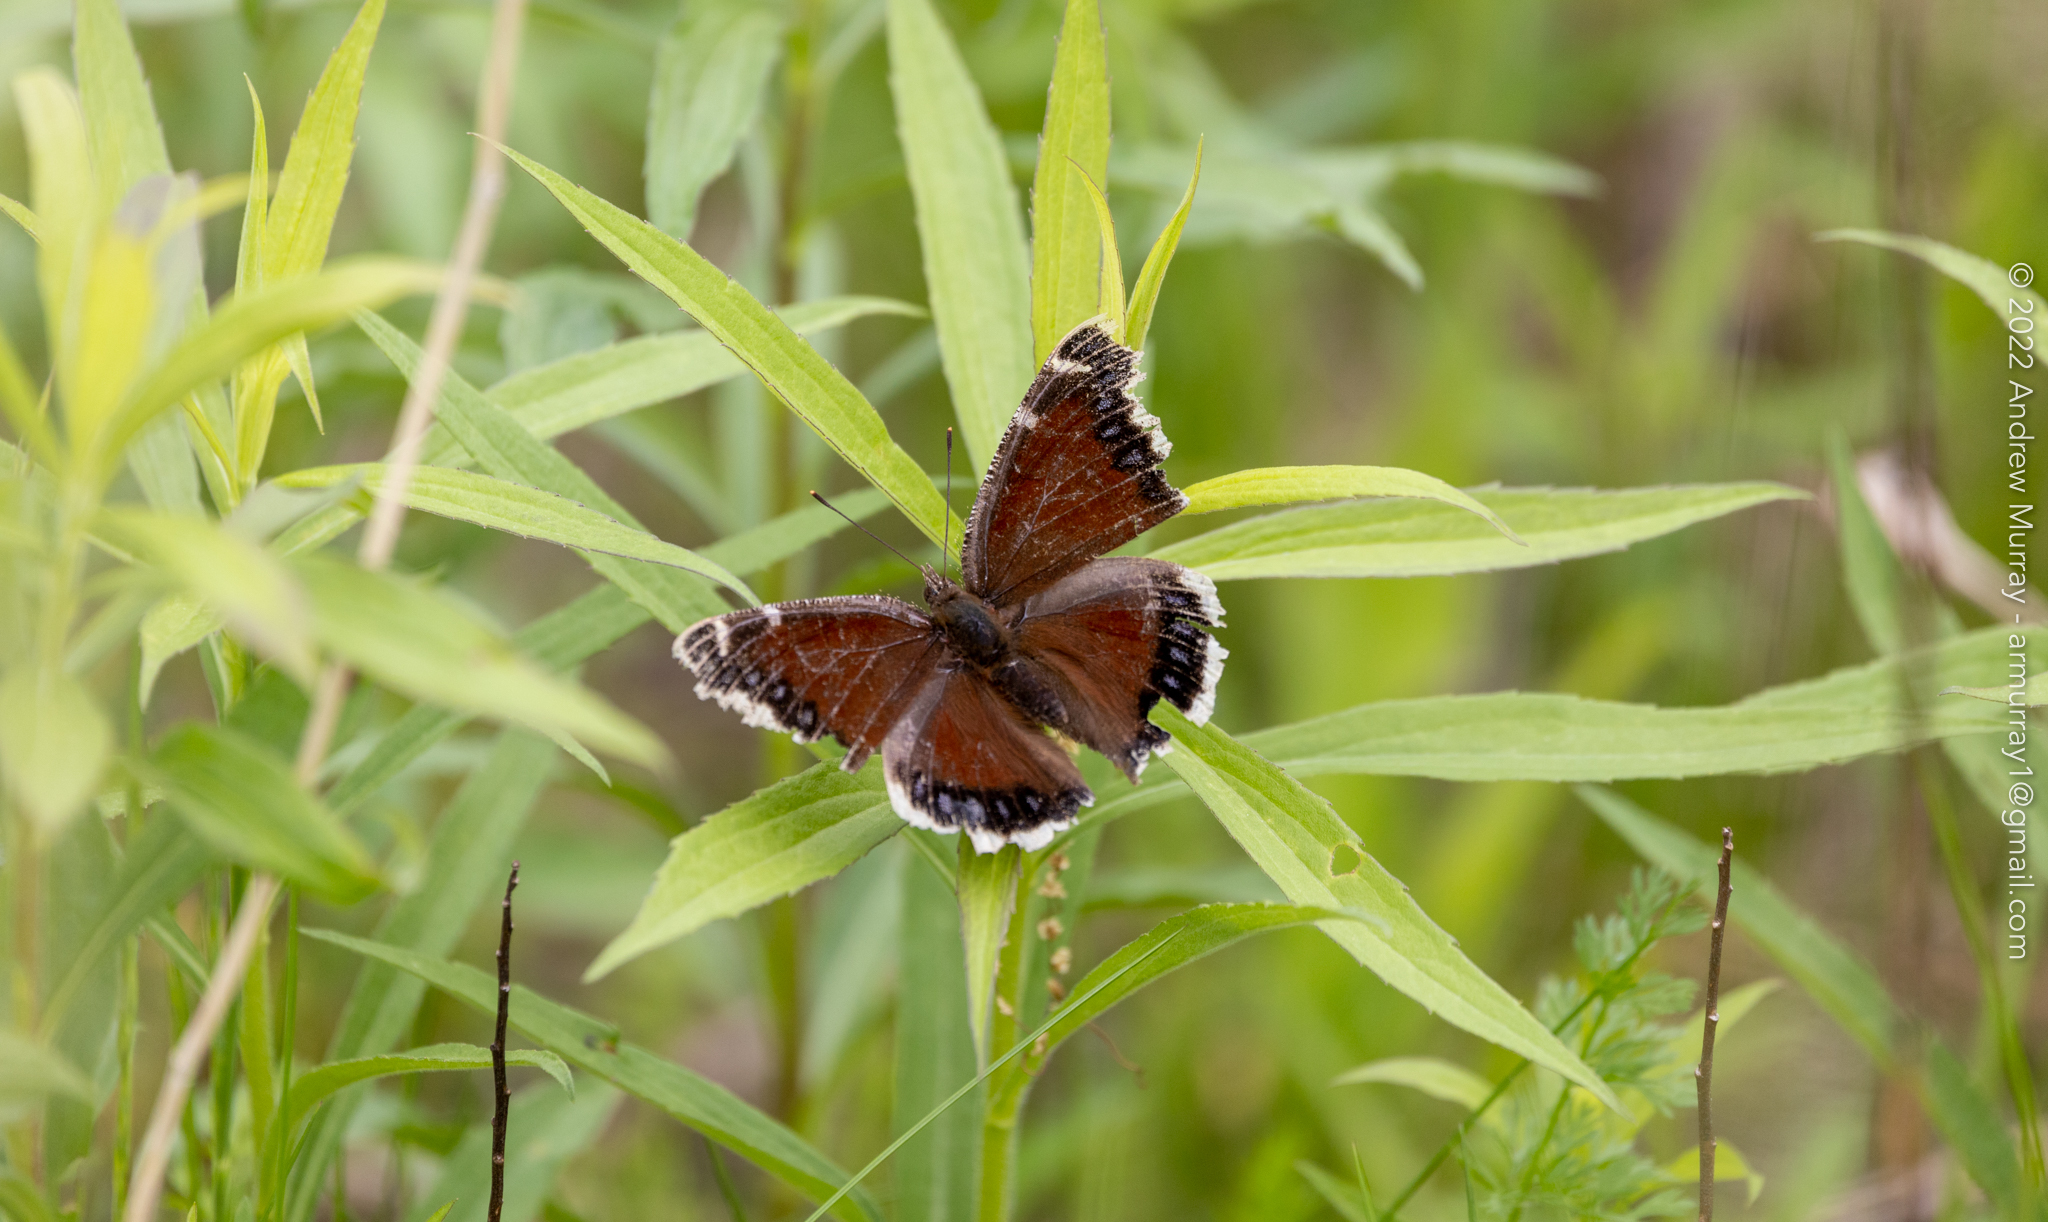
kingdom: Animalia
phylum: Arthropoda
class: Insecta
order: Lepidoptera
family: Nymphalidae
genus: Nymphalis
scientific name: Nymphalis antiopa
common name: Camberwell beauty
